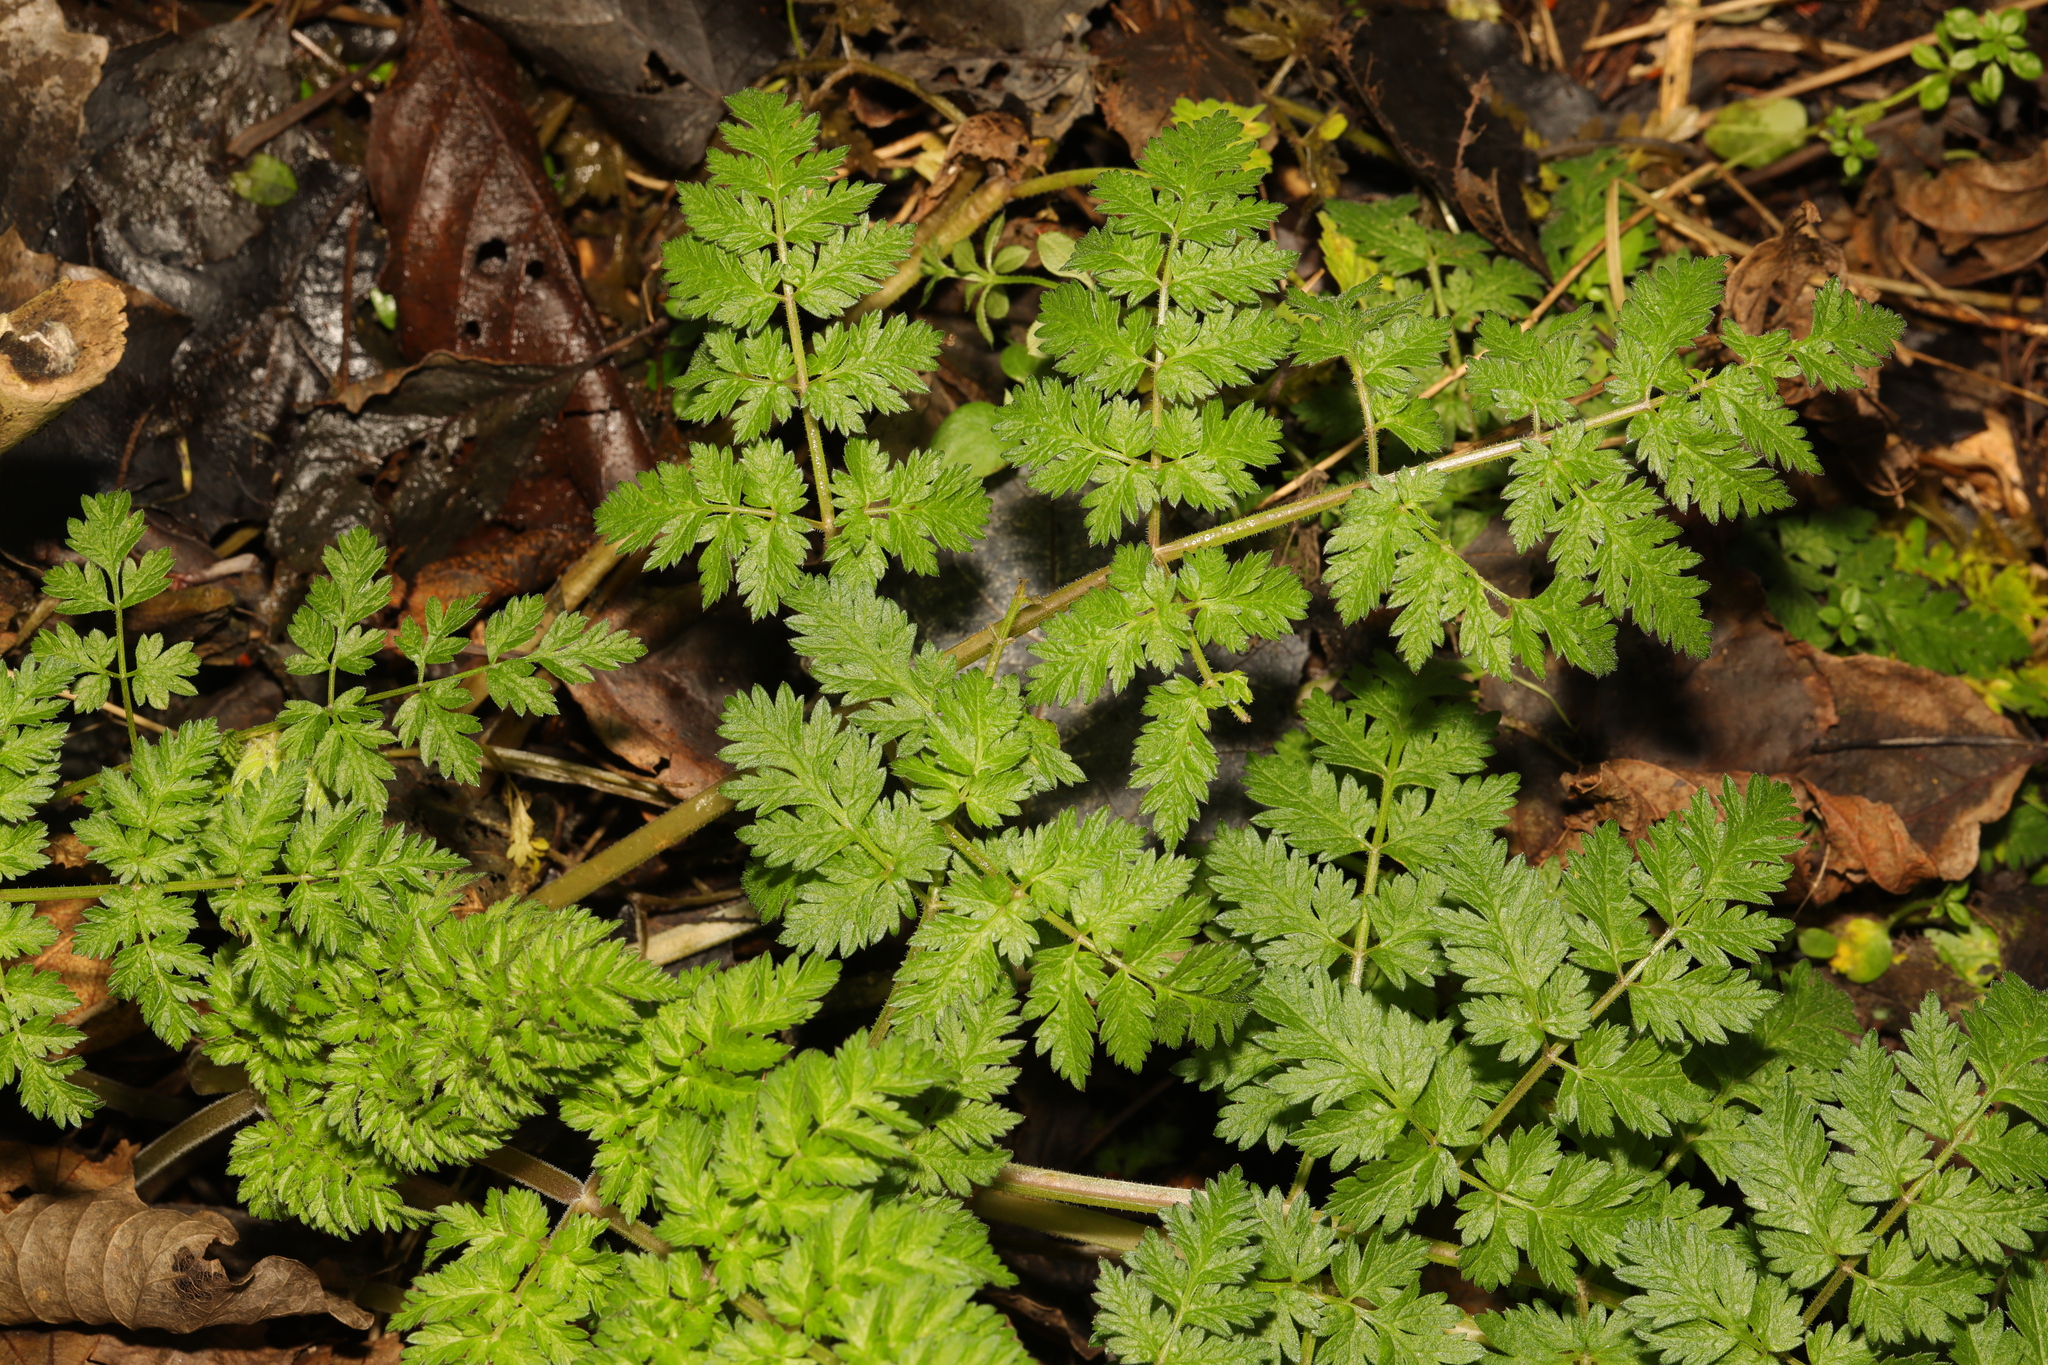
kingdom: Plantae
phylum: Tracheophyta
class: Magnoliopsida
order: Apiales
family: Apiaceae
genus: Anthriscus
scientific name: Anthriscus sylvestris
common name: Cow parsley
